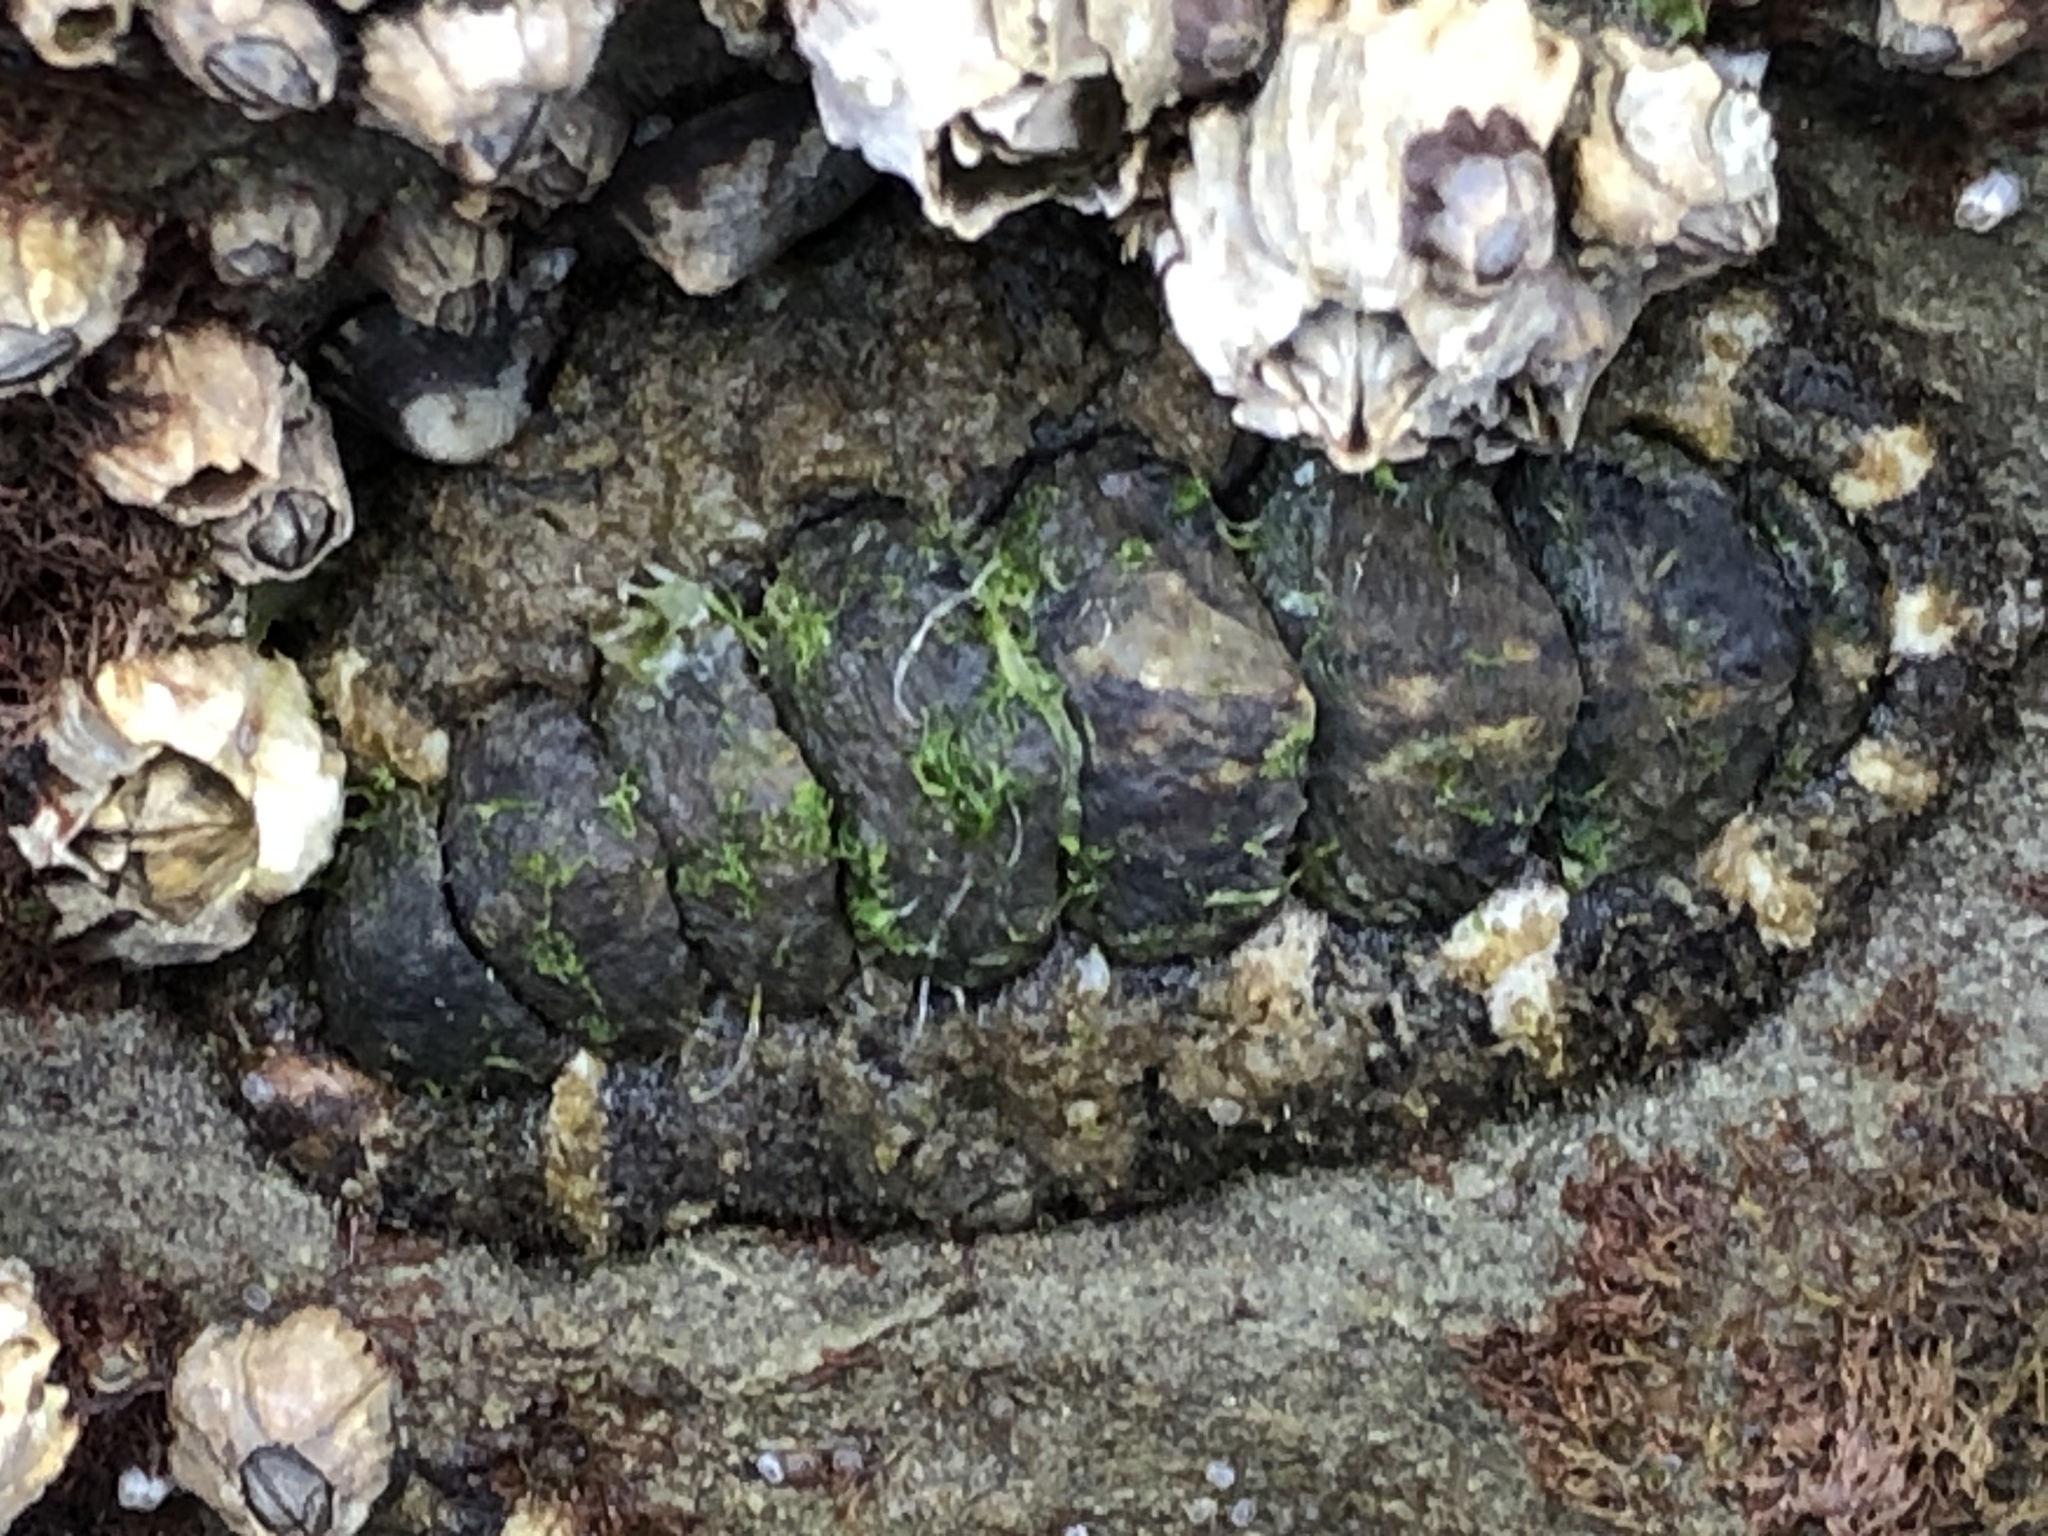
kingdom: Animalia
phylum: Mollusca
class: Polyplacophora
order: Chitonida
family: Tonicellidae
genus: Nuttallina
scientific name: Nuttallina californica
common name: California nuttall chiton
